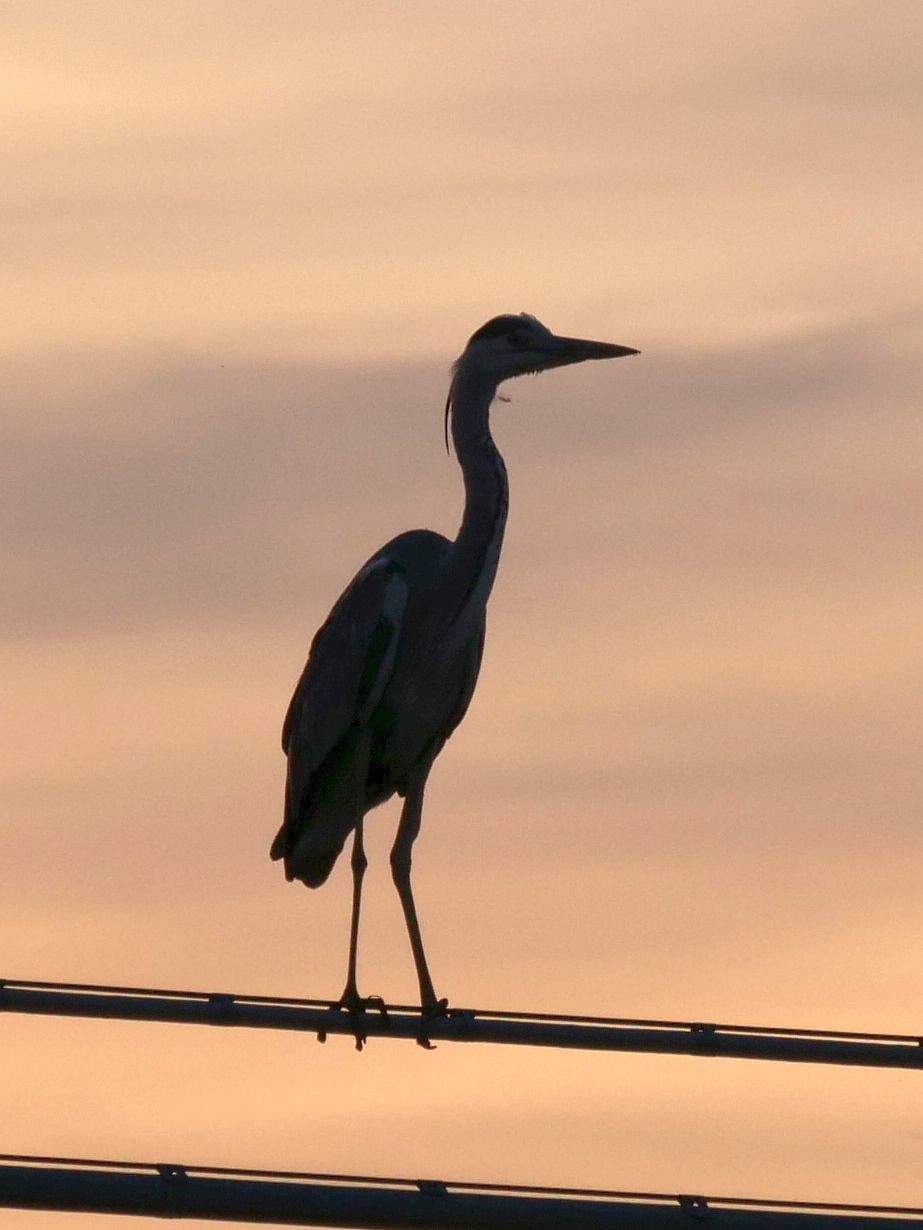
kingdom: Animalia
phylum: Chordata
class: Aves
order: Pelecaniformes
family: Ardeidae
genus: Ardea
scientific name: Ardea cinerea
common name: Grey heron
